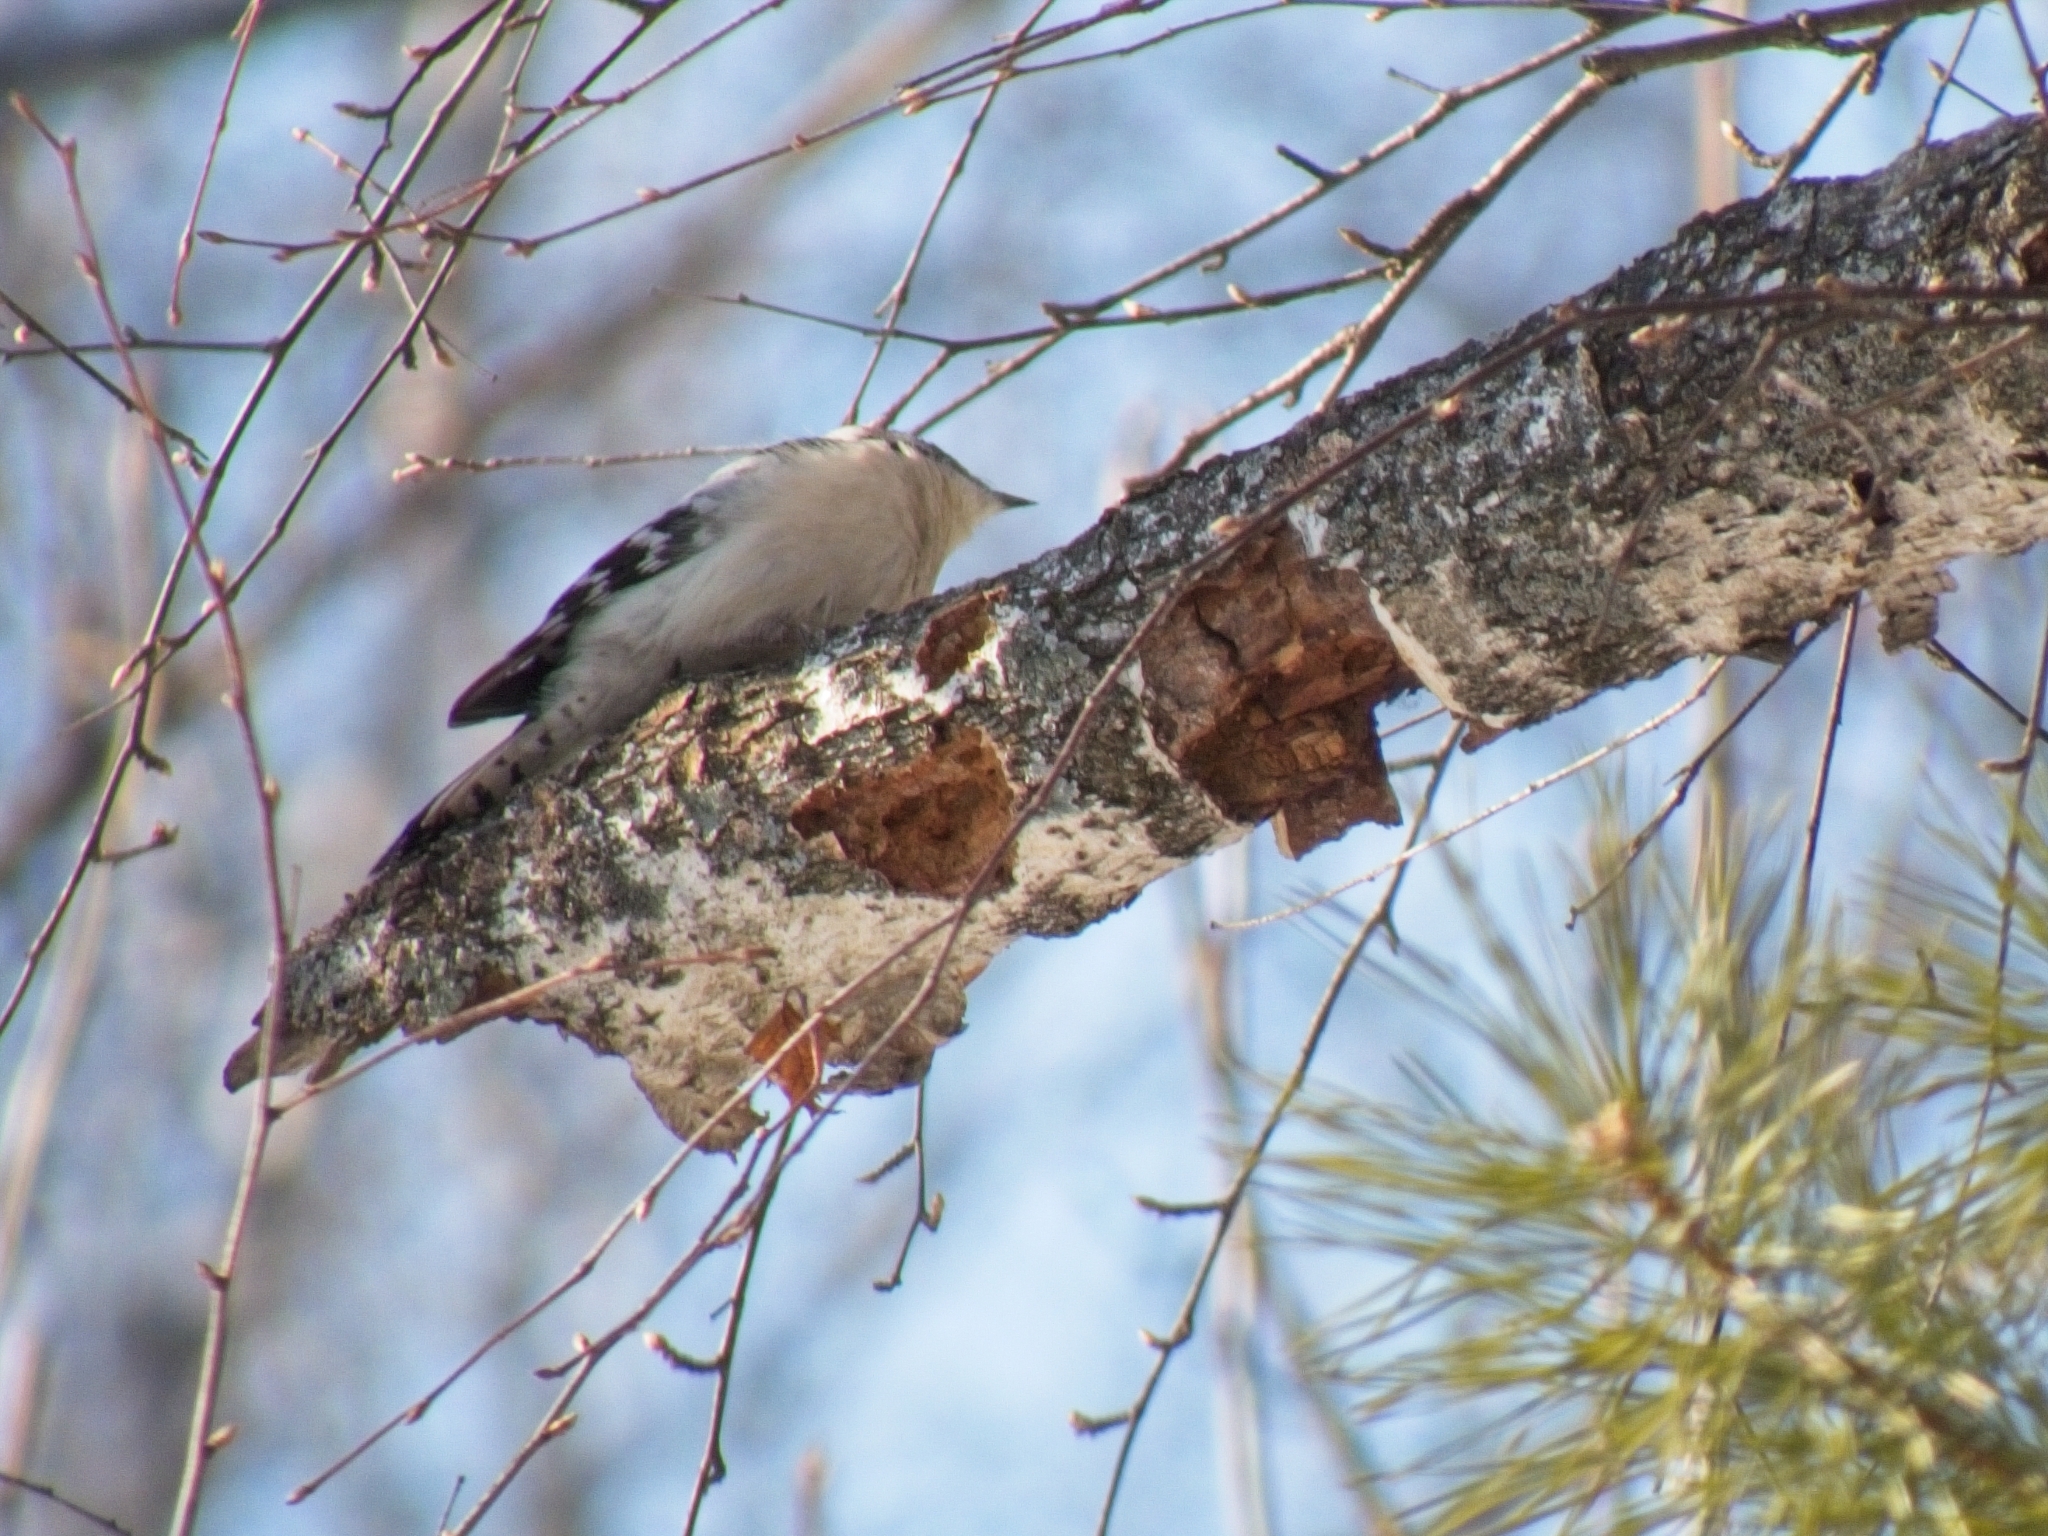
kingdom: Animalia
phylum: Chordata
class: Aves
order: Piciformes
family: Picidae
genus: Dryobates
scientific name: Dryobates minor
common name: Lesser spotted woodpecker
